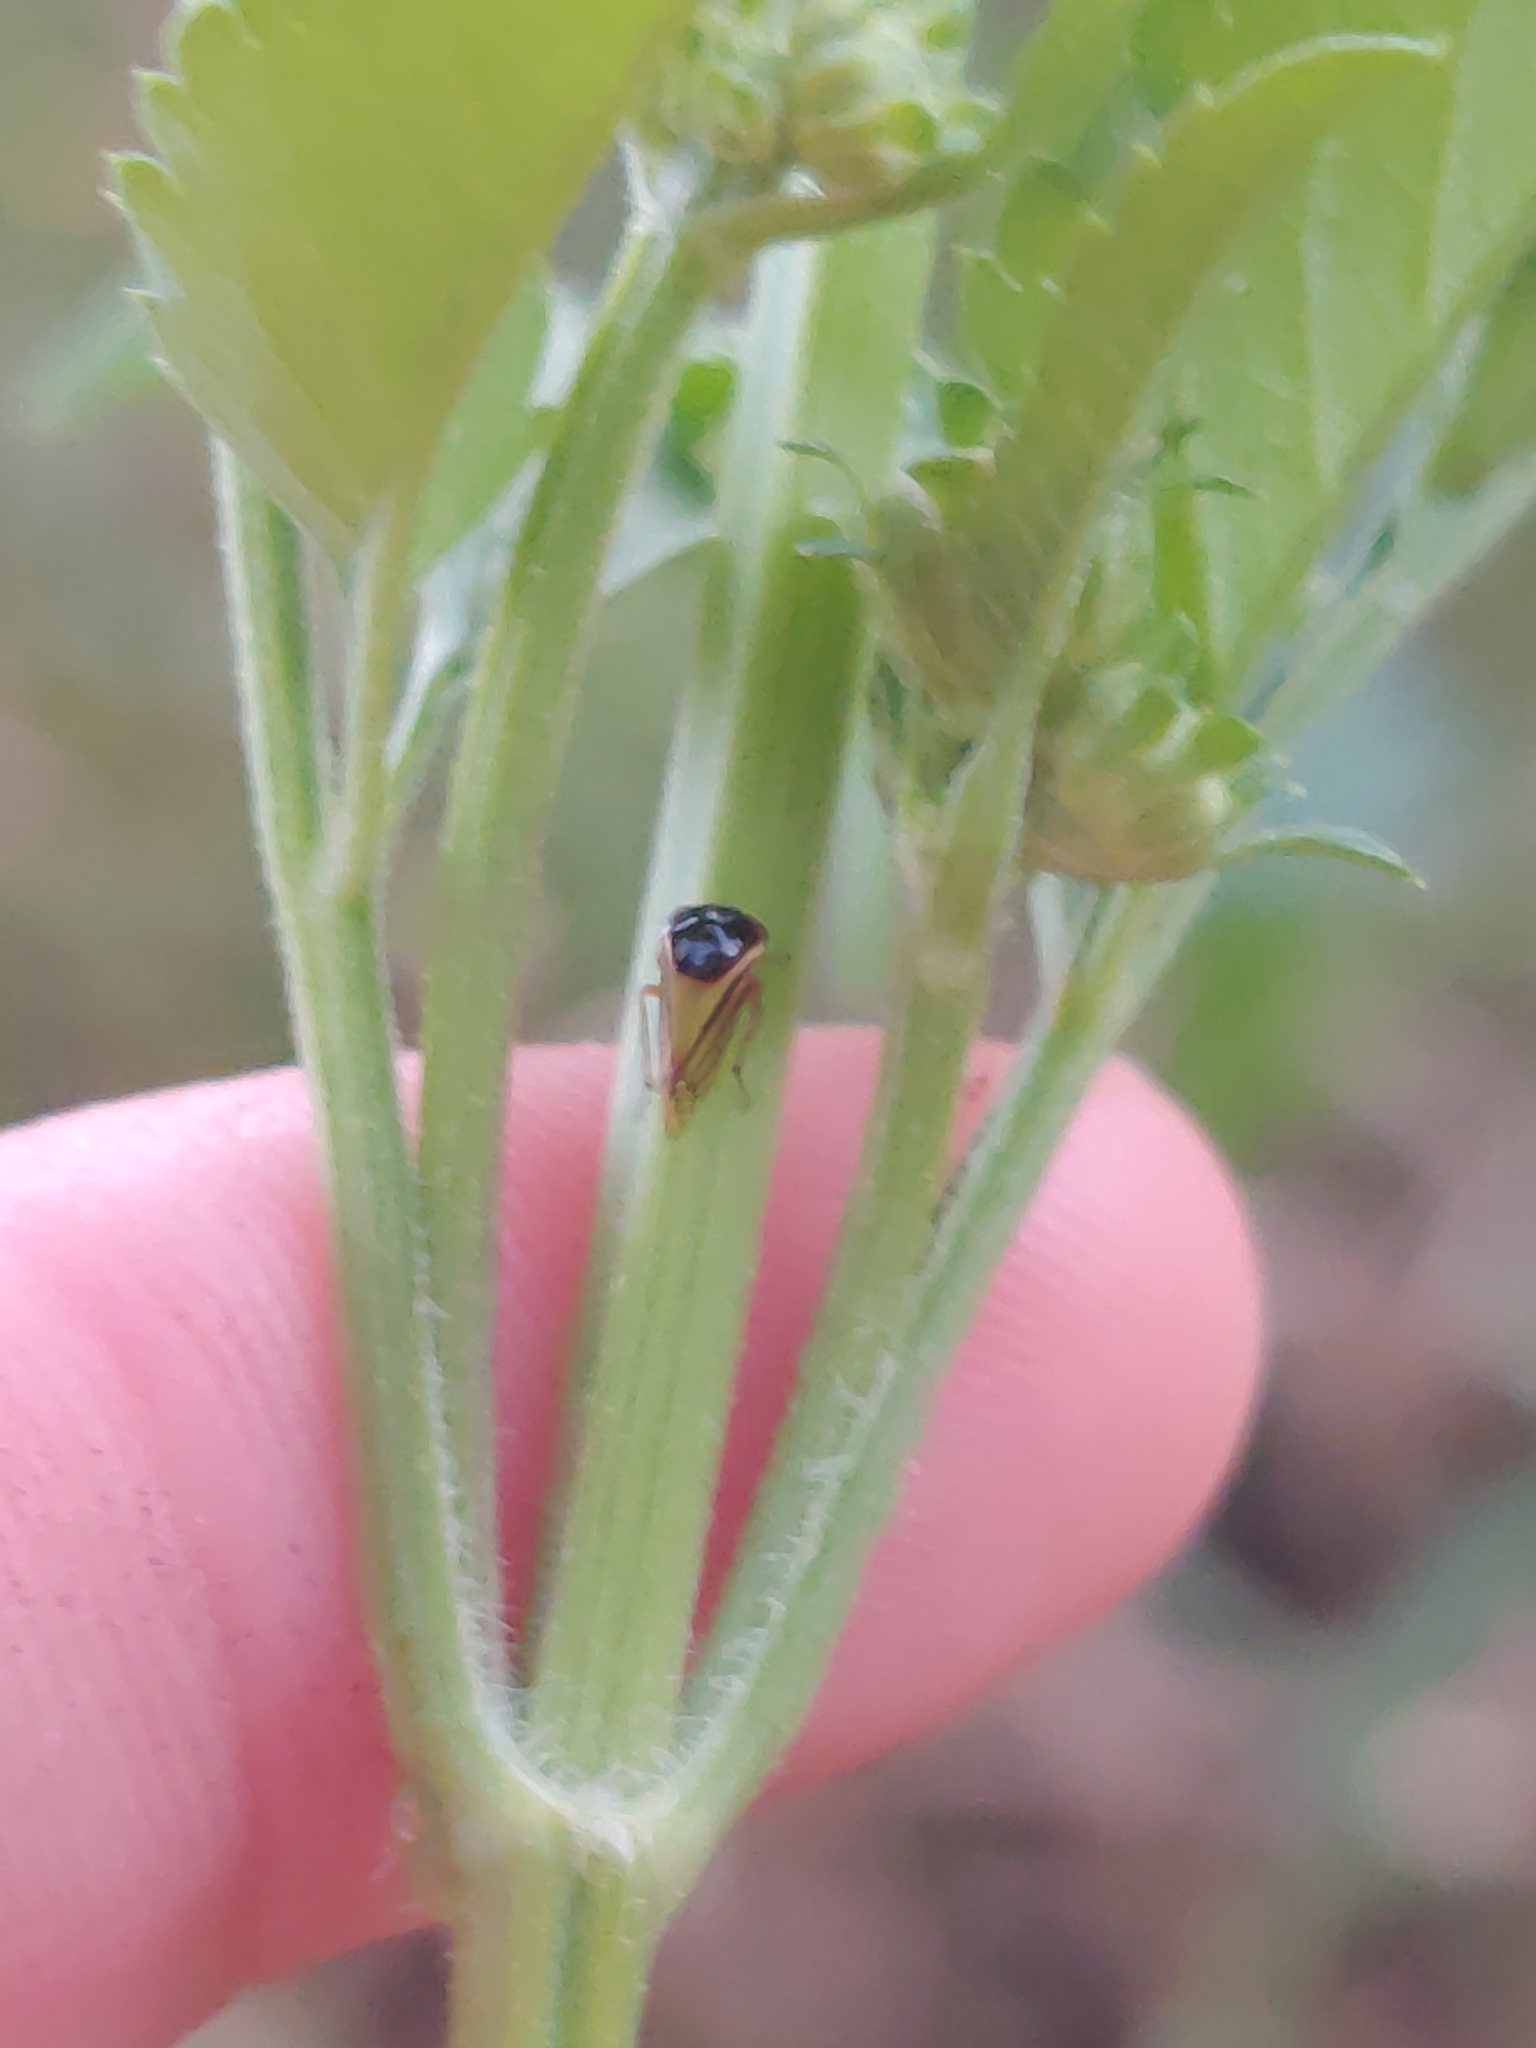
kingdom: Animalia
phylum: Arthropoda
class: Insecta
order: Hemiptera
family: Membracidae
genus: Acutalis
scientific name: Acutalis tartarea
